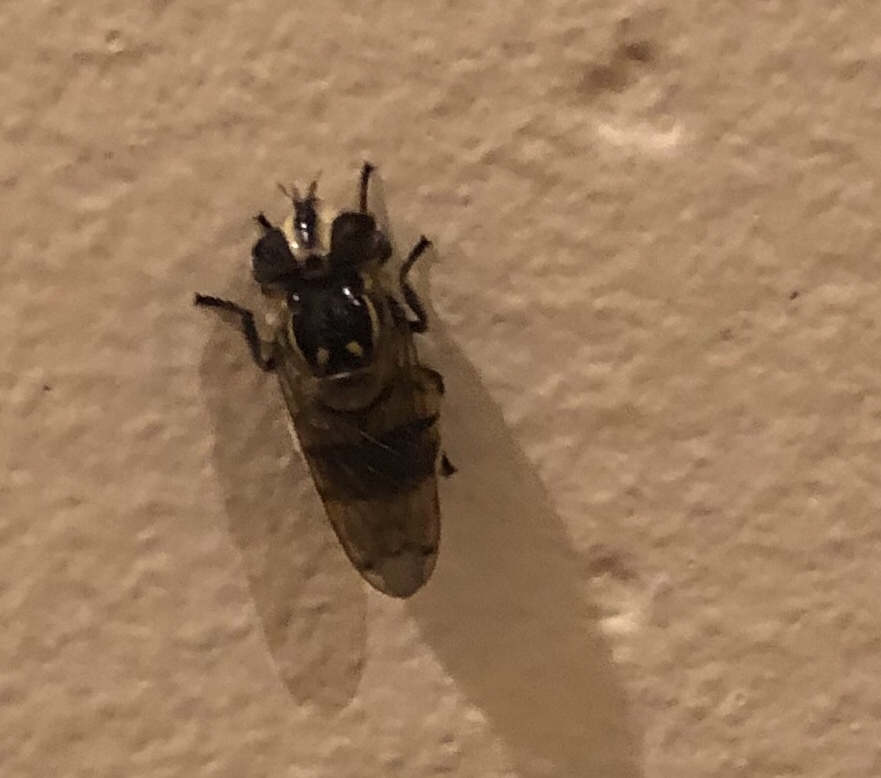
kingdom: Animalia
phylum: Arthropoda
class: Insecta
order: Diptera
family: Syrphidae
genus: Copestylum
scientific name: Copestylum fraudulentum
